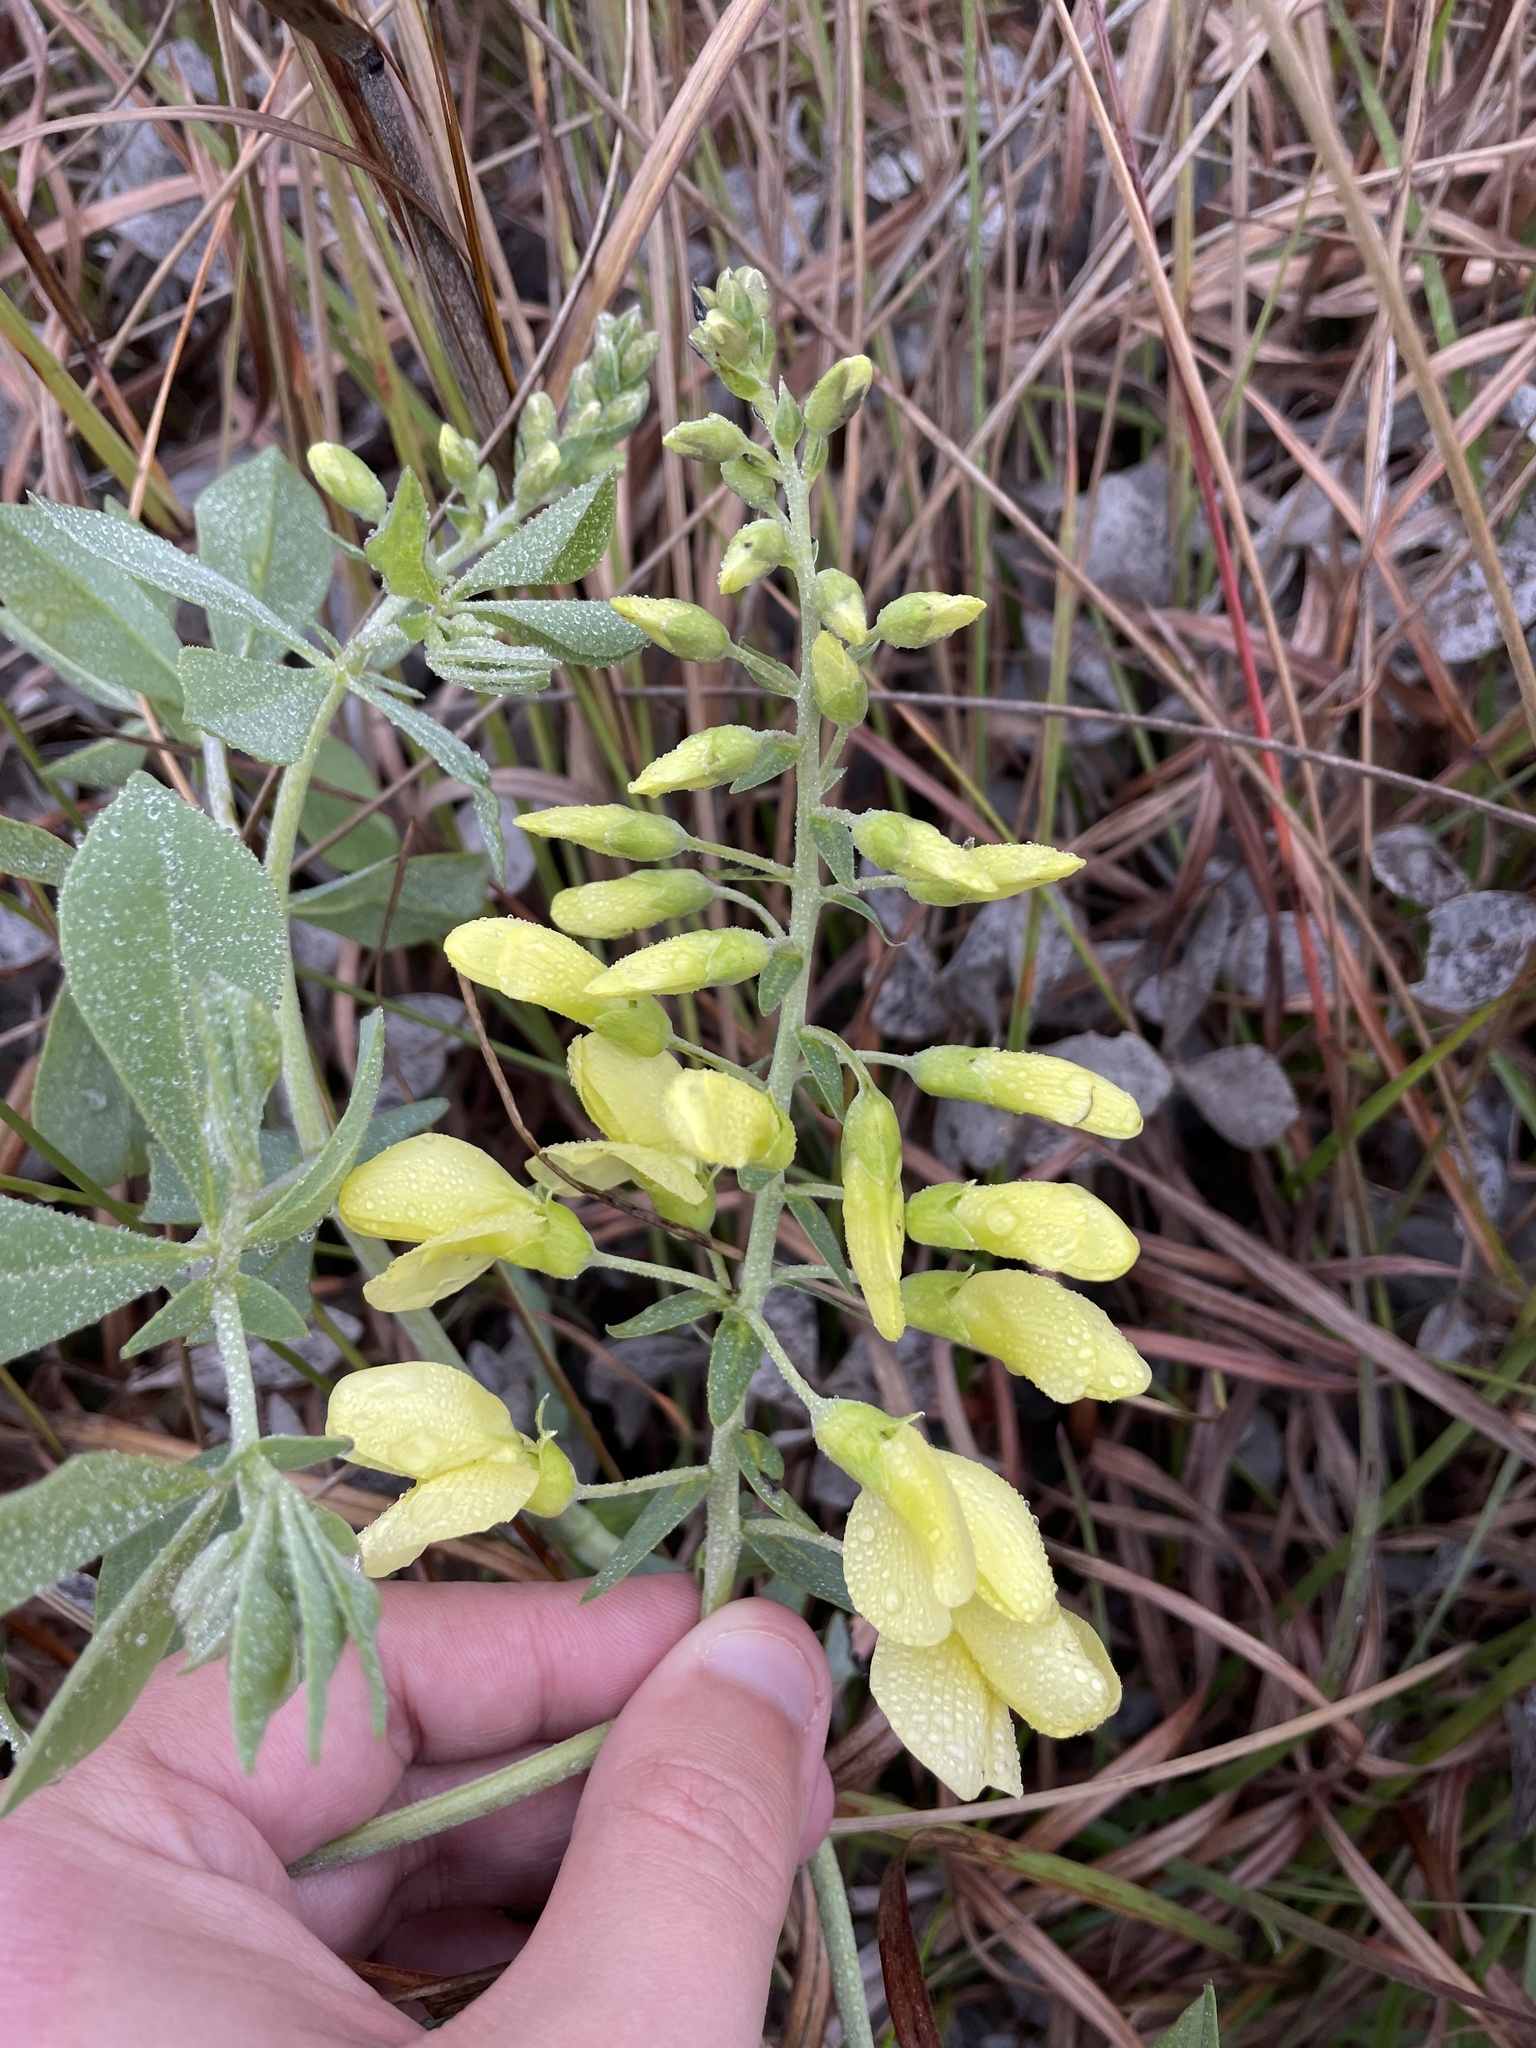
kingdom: Plantae
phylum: Tracheophyta
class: Magnoliopsida
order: Fabales
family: Fabaceae
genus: Baptisia
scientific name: Baptisia bracteata
